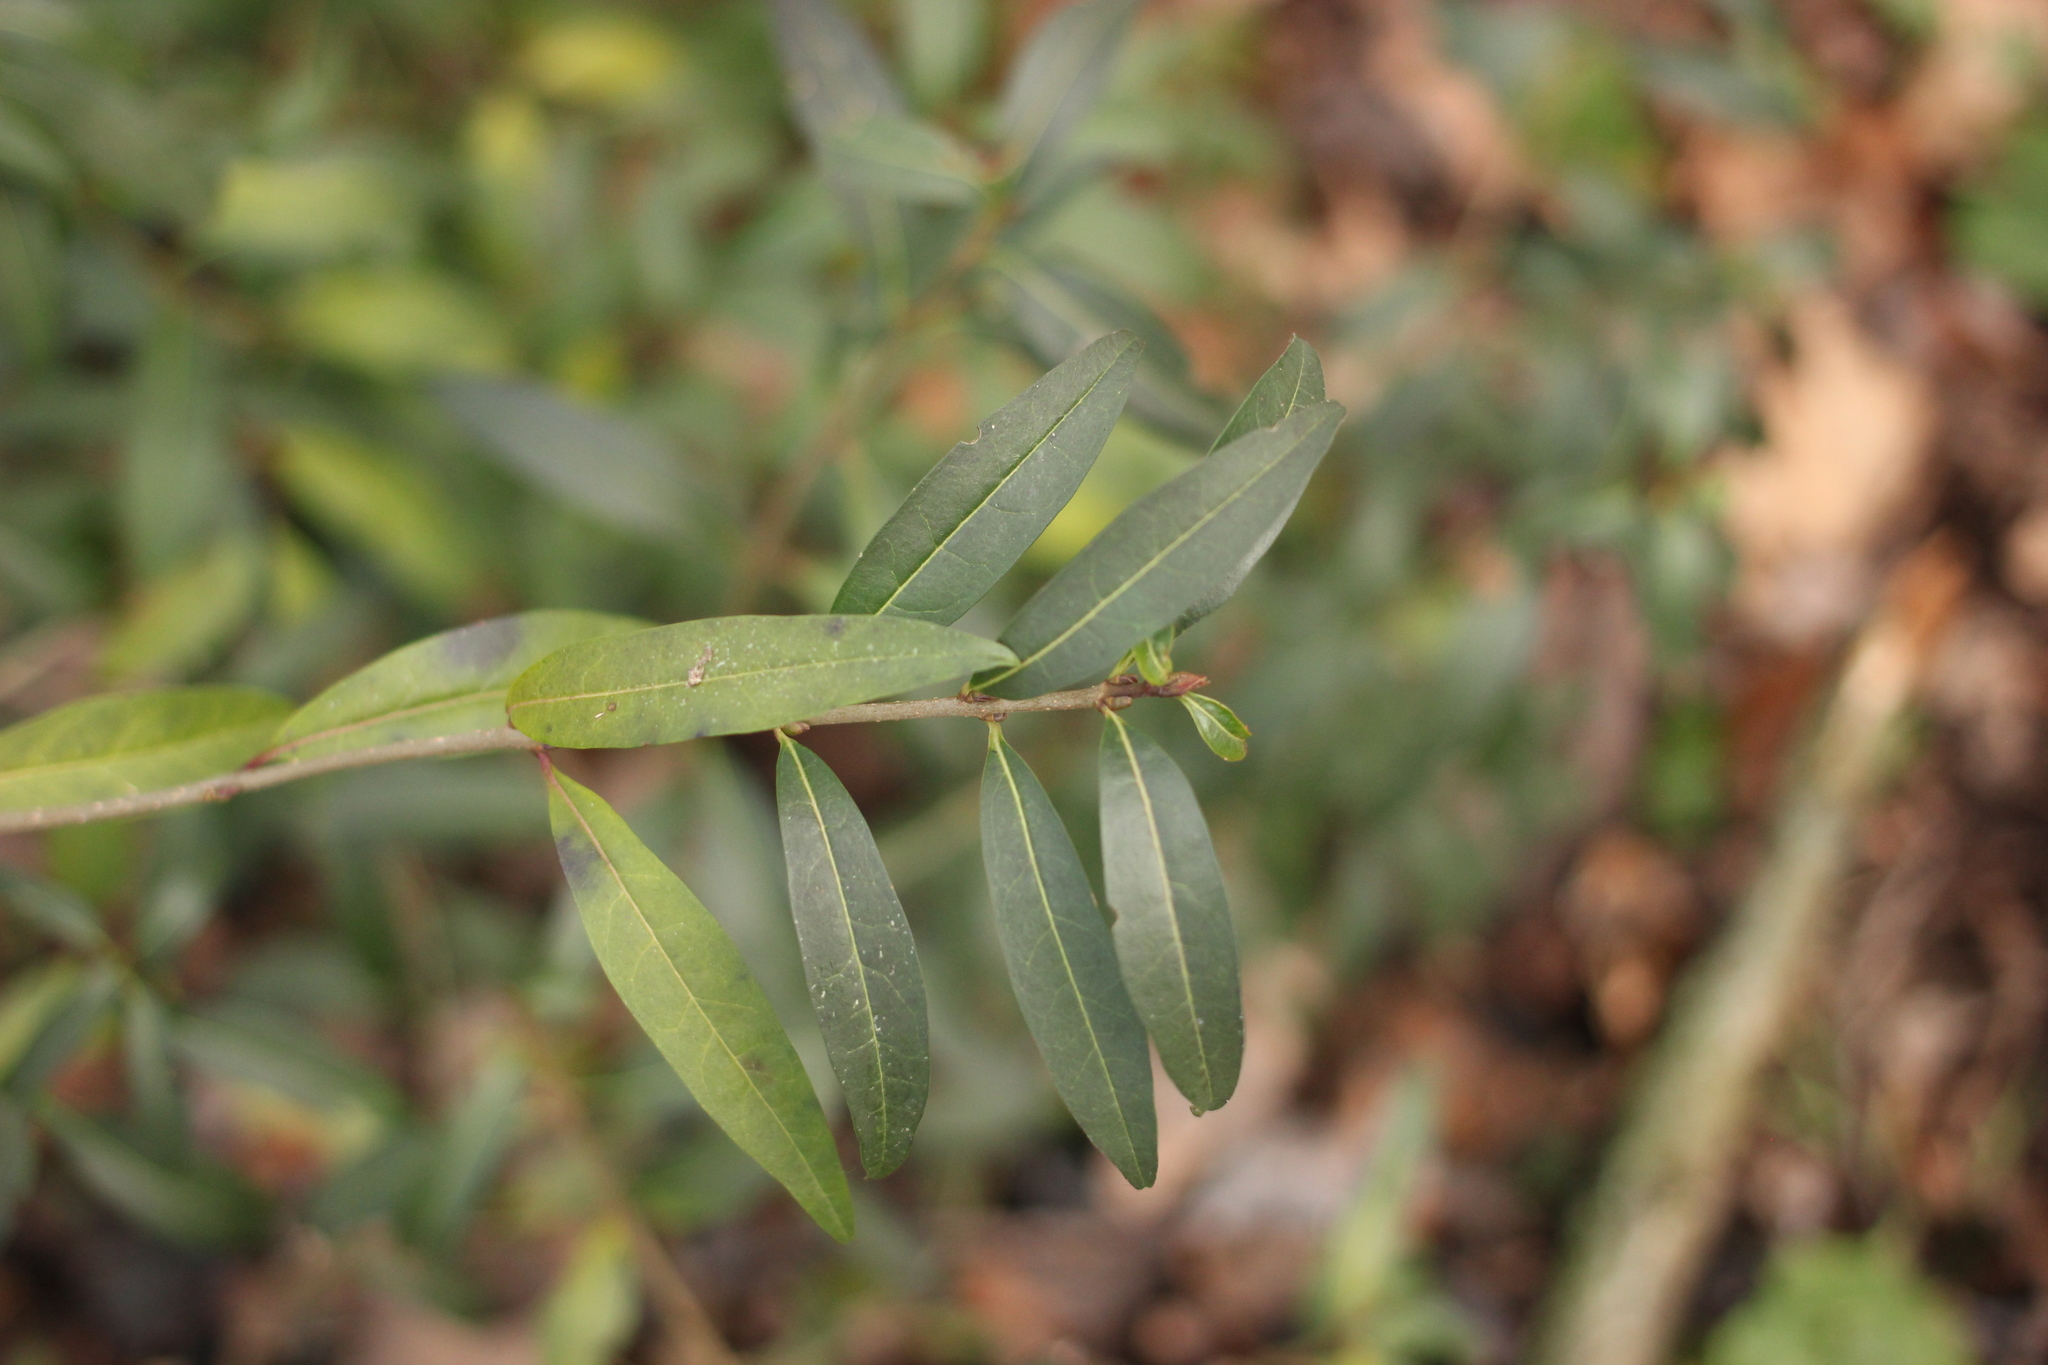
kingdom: Plantae
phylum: Tracheophyta
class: Magnoliopsida
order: Lamiales
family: Oleaceae
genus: Ligustrum
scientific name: Ligustrum vulgare
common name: Wild privet
